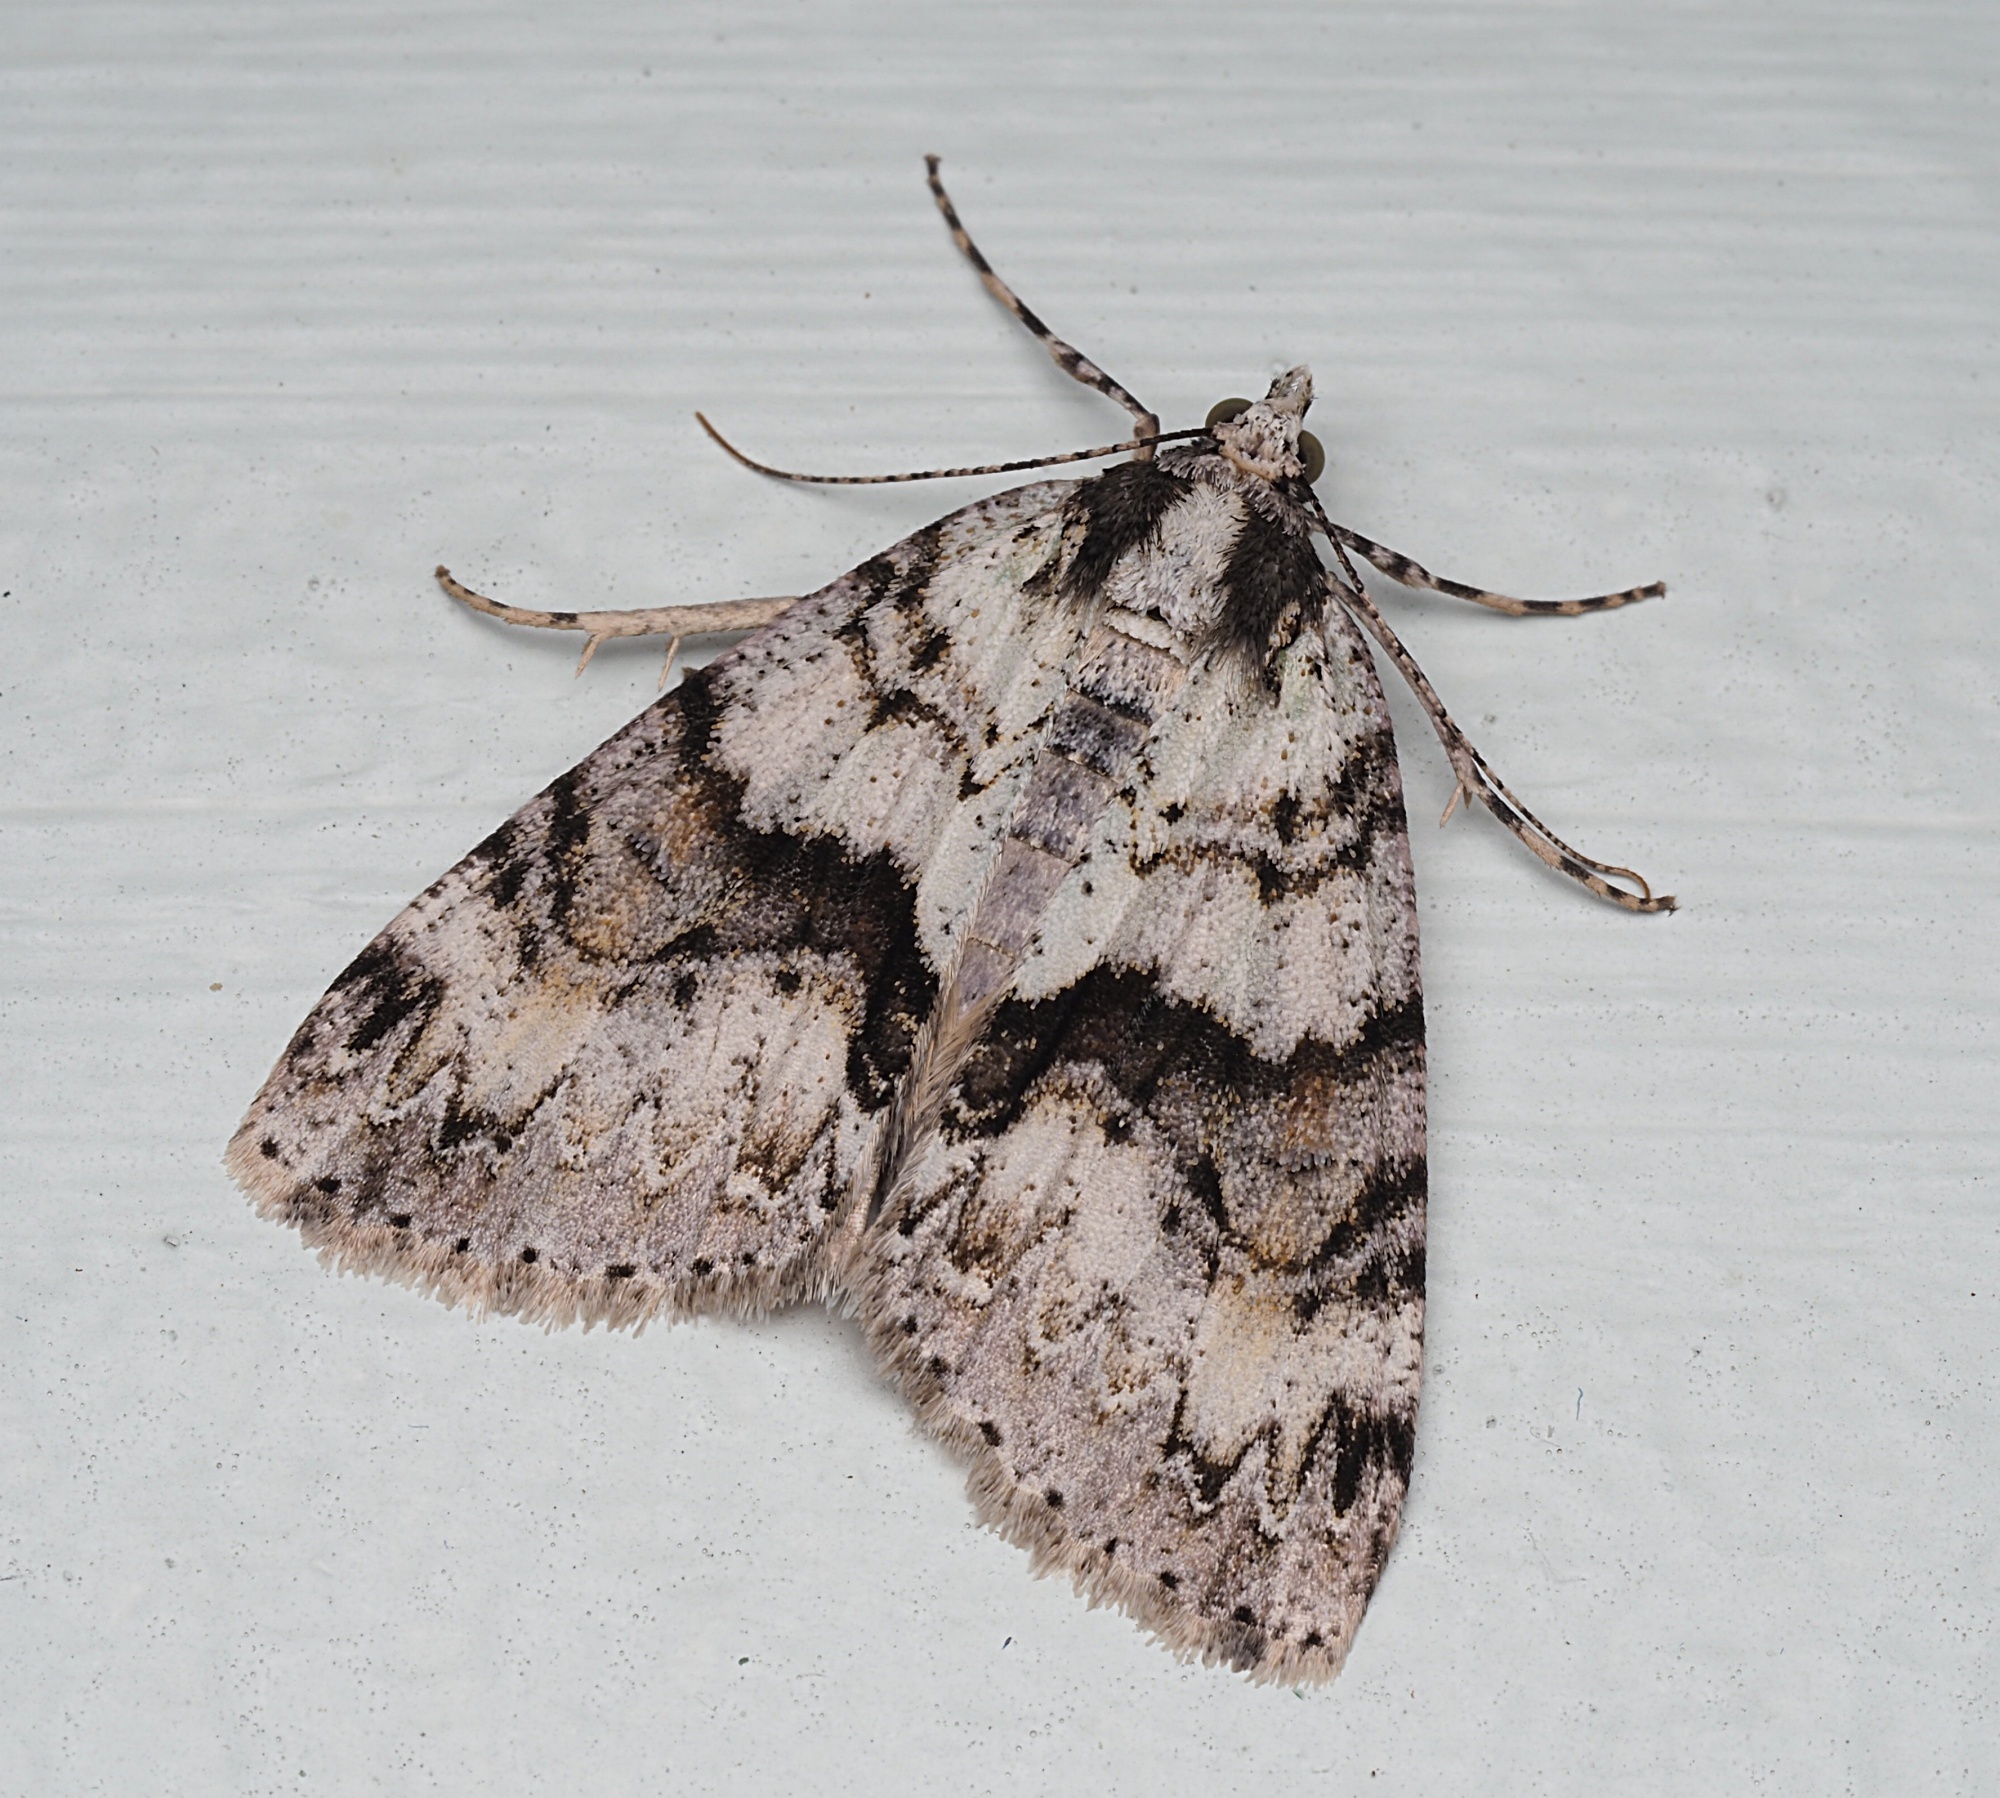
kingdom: Animalia
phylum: Arthropoda
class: Insecta
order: Lepidoptera
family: Geometridae
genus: Pseudocoremia
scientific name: Pseudocoremia suavis
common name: Common forest looper
